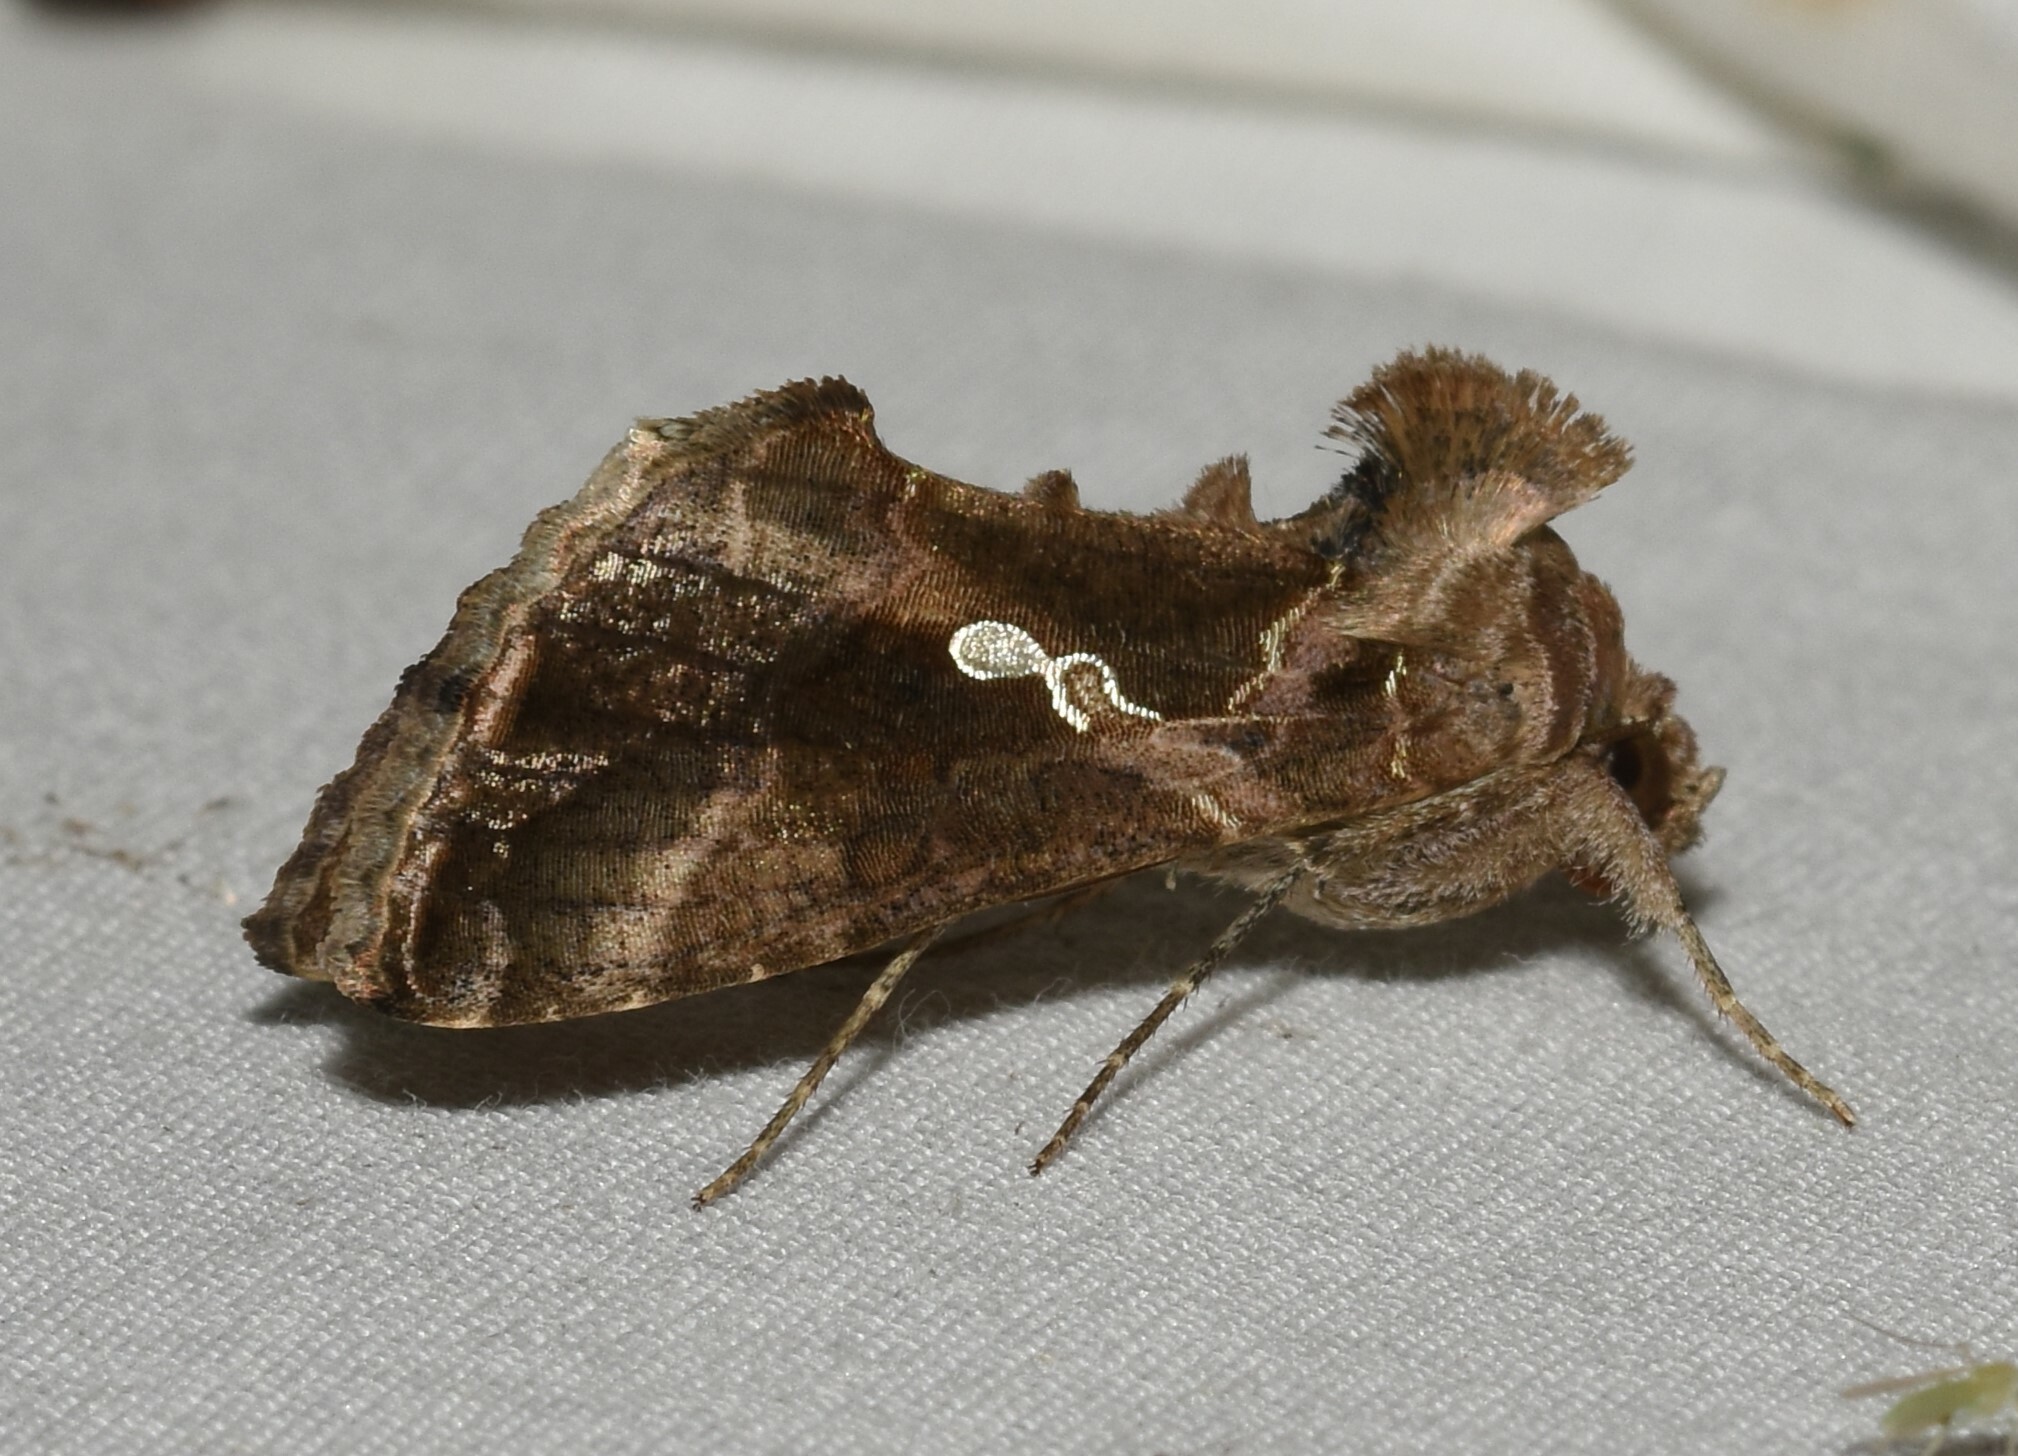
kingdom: Animalia
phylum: Arthropoda
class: Insecta
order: Lepidoptera
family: Noctuidae
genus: Chrysodeixis
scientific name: Chrysodeixis includens
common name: Cutworm moth
